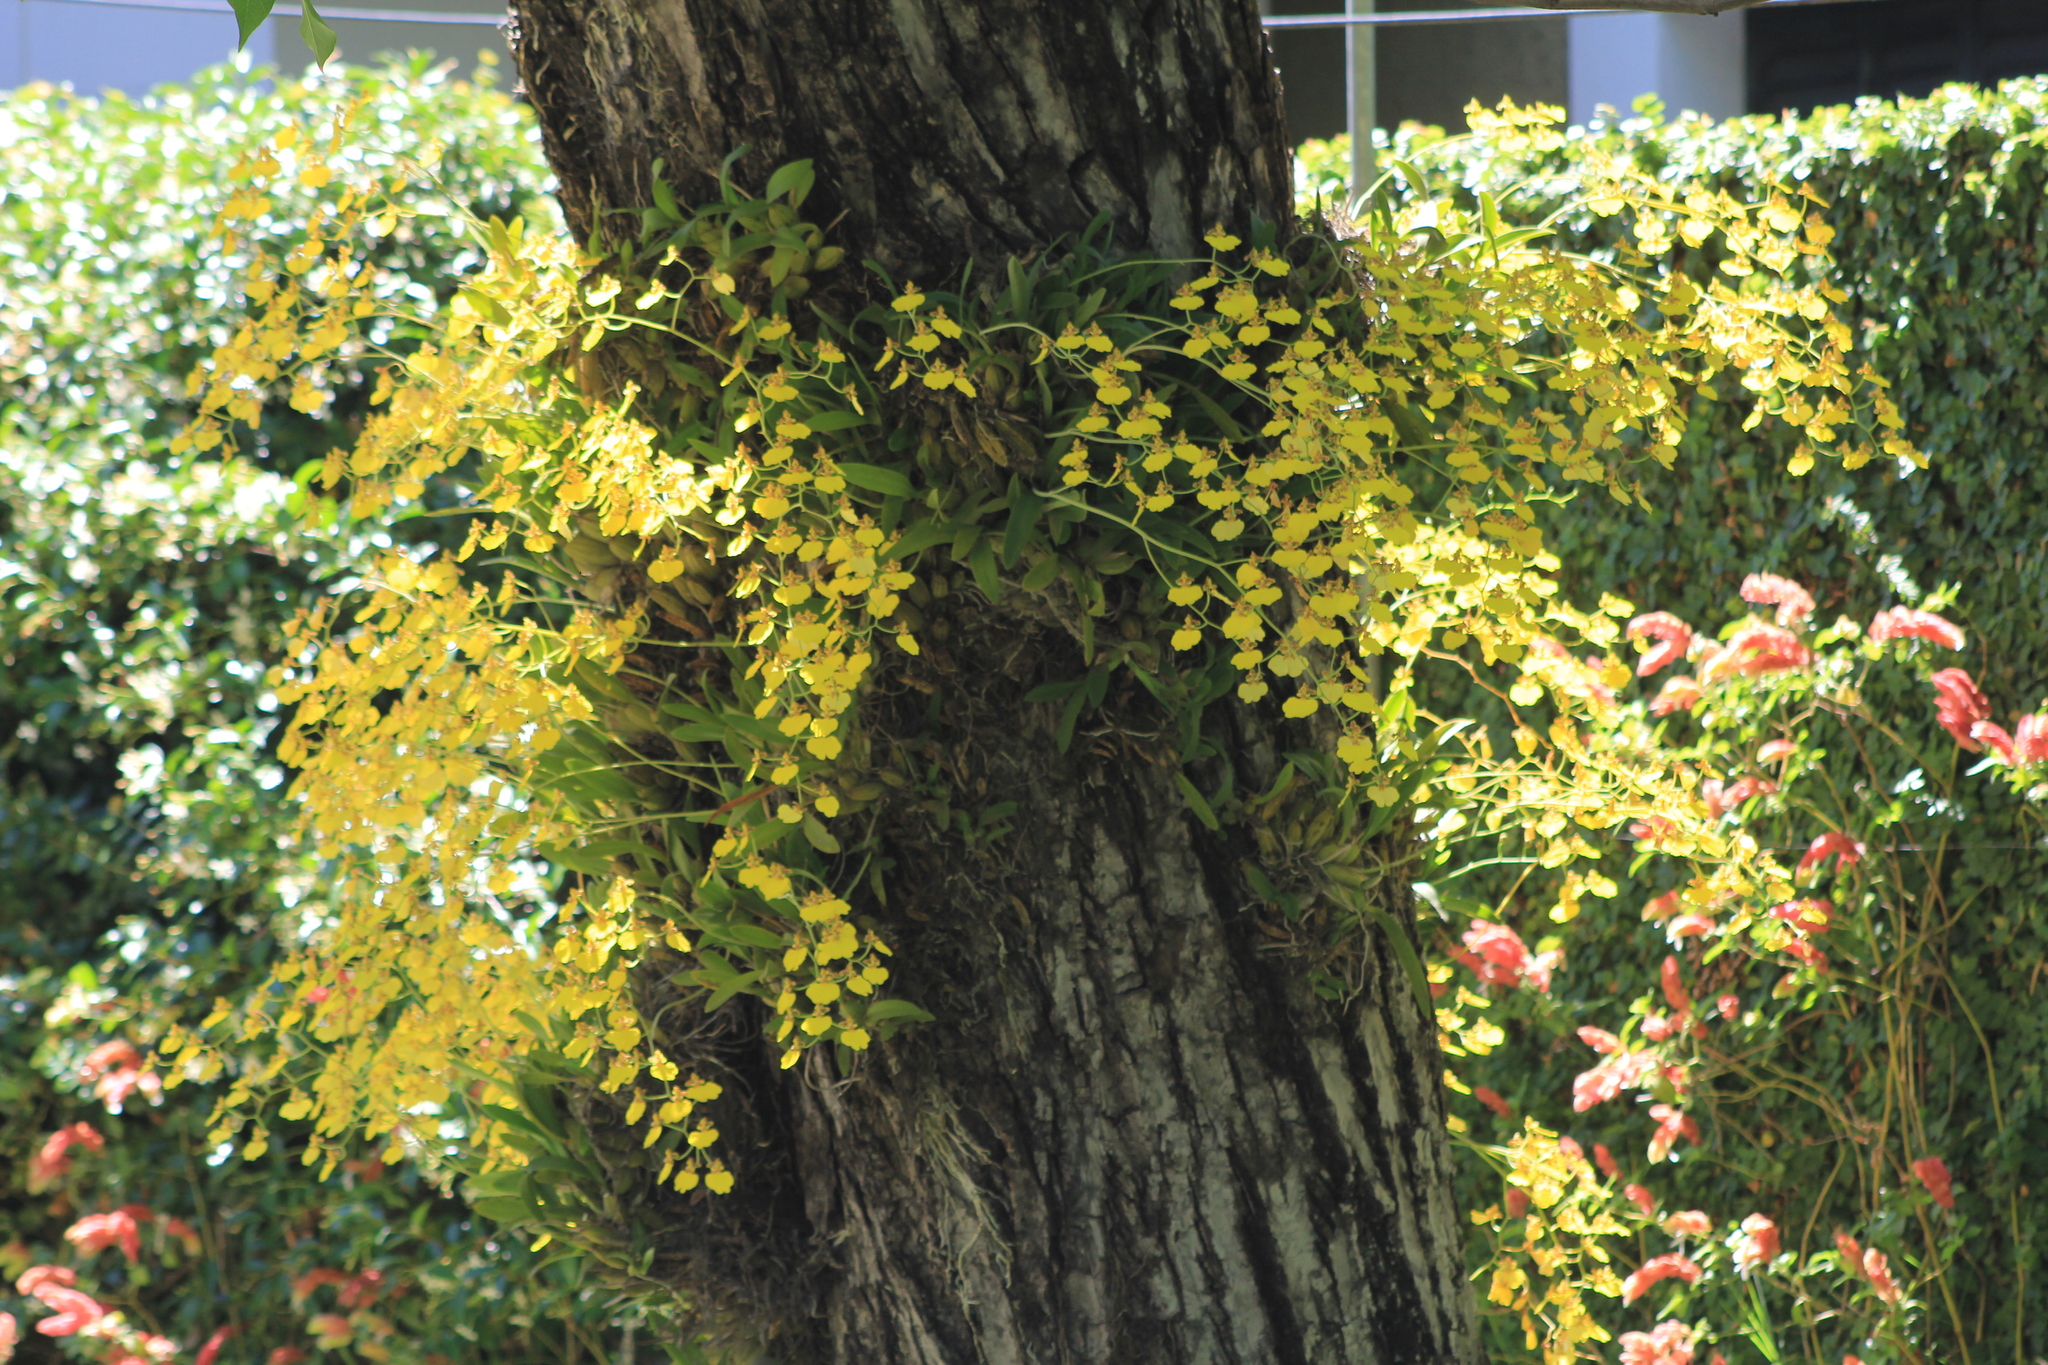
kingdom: Plantae
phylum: Tracheophyta
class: Liliopsida
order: Asparagales
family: Orchidaceae
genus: Gomesa
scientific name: Gomesa bifolia
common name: Dancing ladies
